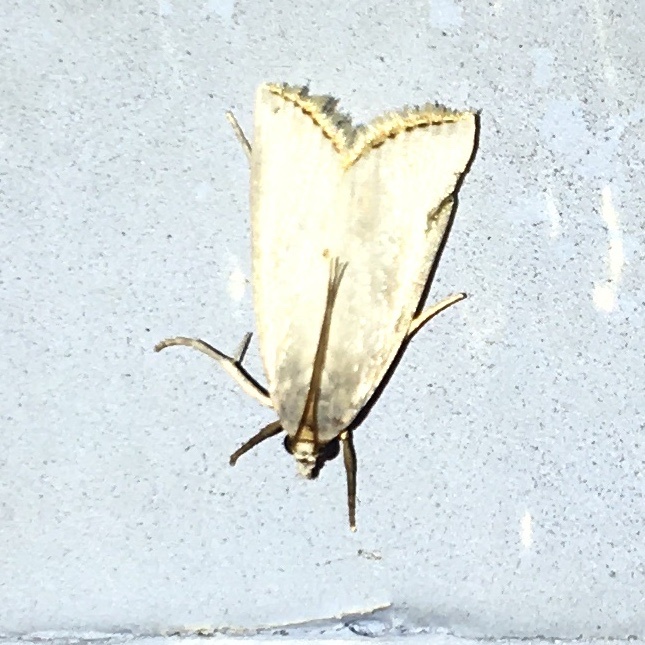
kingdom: Animalia
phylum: Arthropoda
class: Insecta
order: Lepidoptera
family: Crambidae
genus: Argyria
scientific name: Argyria nivalis
